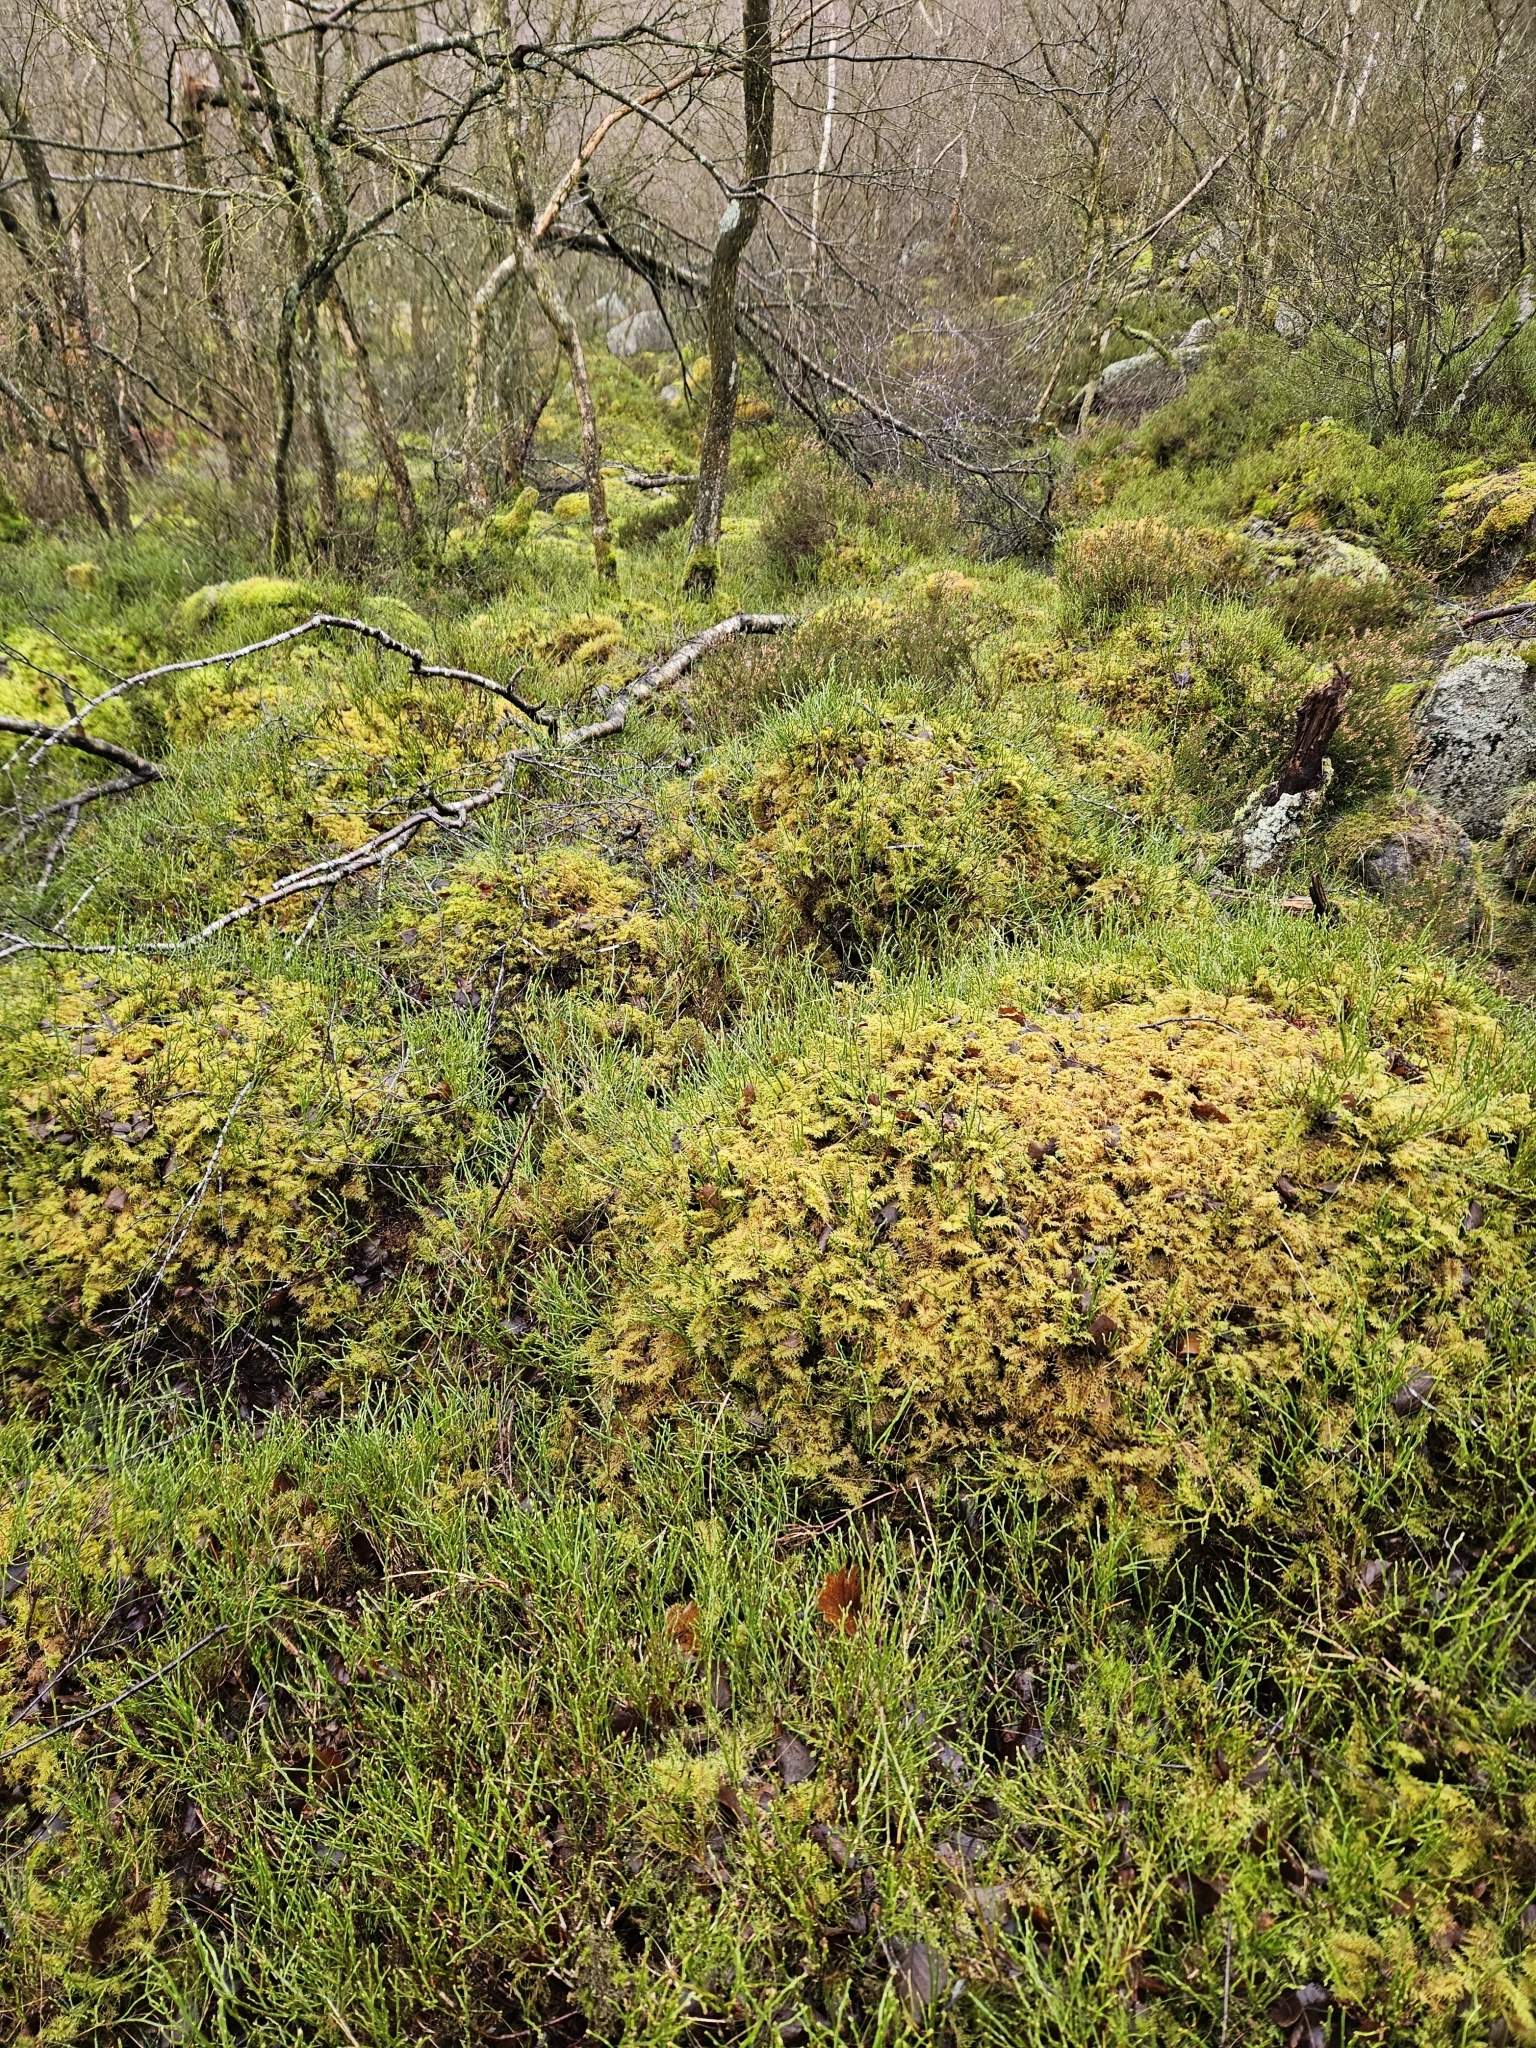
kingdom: Plantae
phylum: Bryophyta
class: Bryopsida
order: Hypnales
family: Hylocomiaceae
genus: Hylocomium
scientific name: Hylocomium splendens
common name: Stairstep moss
